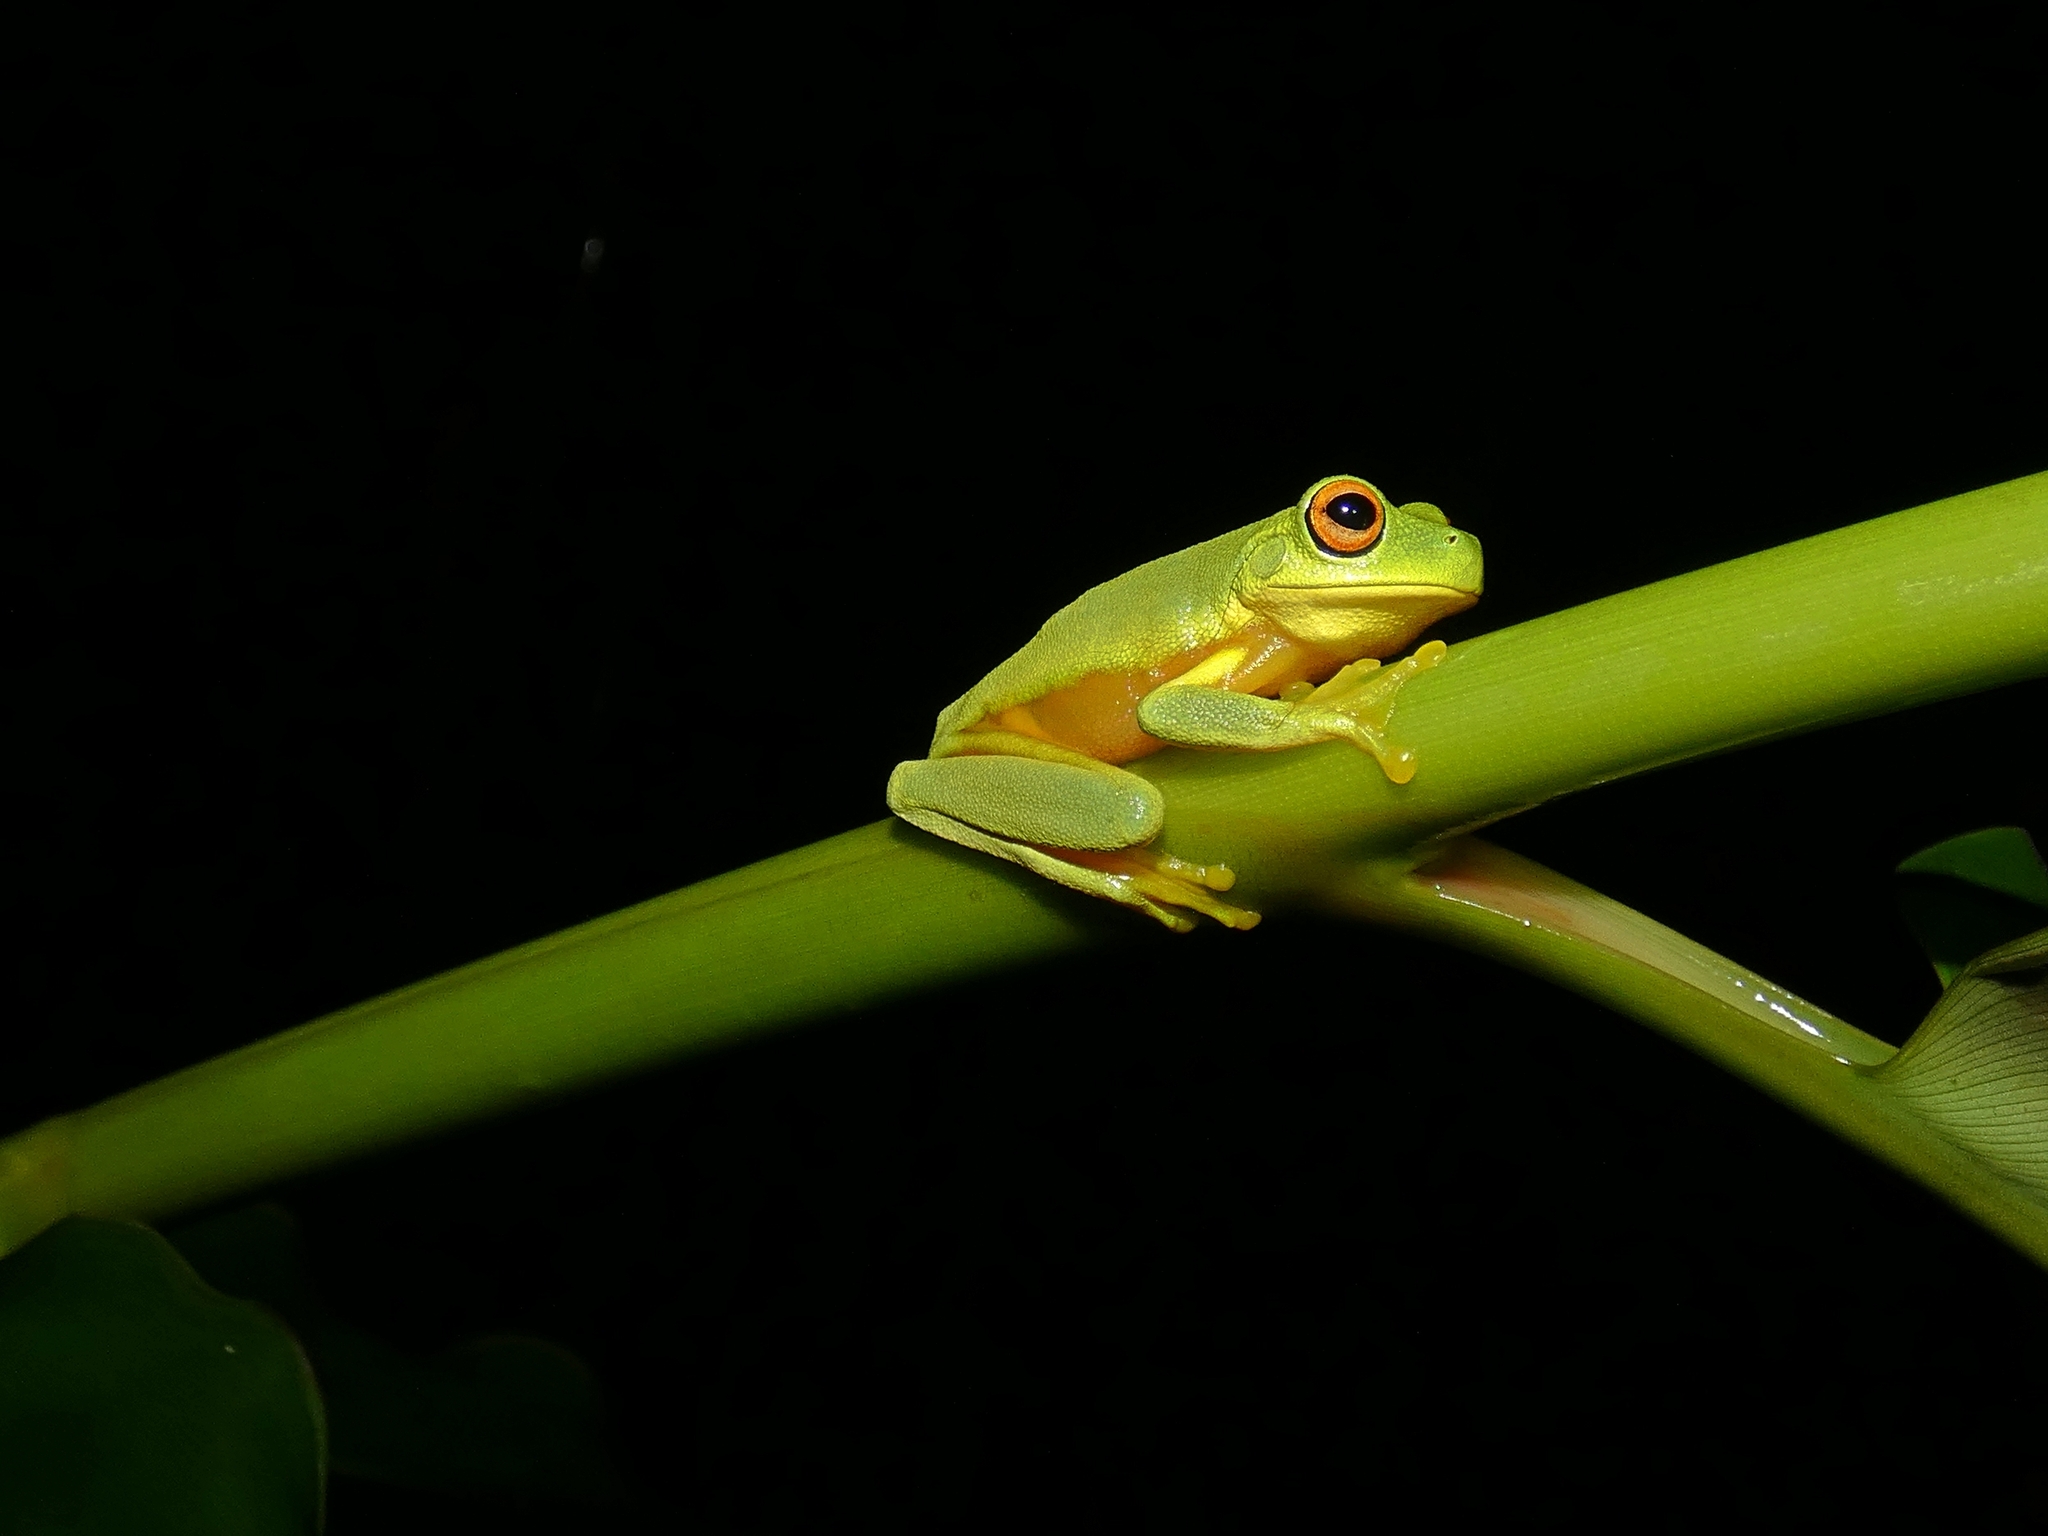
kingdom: Animalia
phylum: Chordata
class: Amphibia
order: Anura
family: Pelodryadidae
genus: Ranoidea
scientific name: Ranoidea xanthomera
